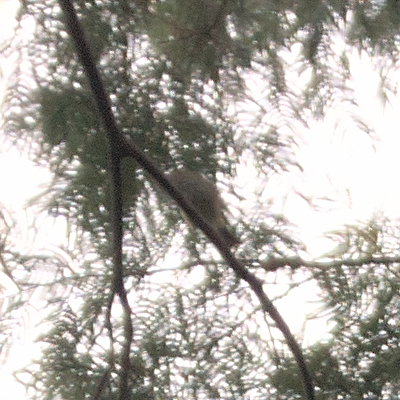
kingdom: Animalia
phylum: Chordata
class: Aves
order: Passeriformes
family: Acanthizidae
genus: Acanthiza
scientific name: Acanthiza pusilla
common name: Brown thornbill
